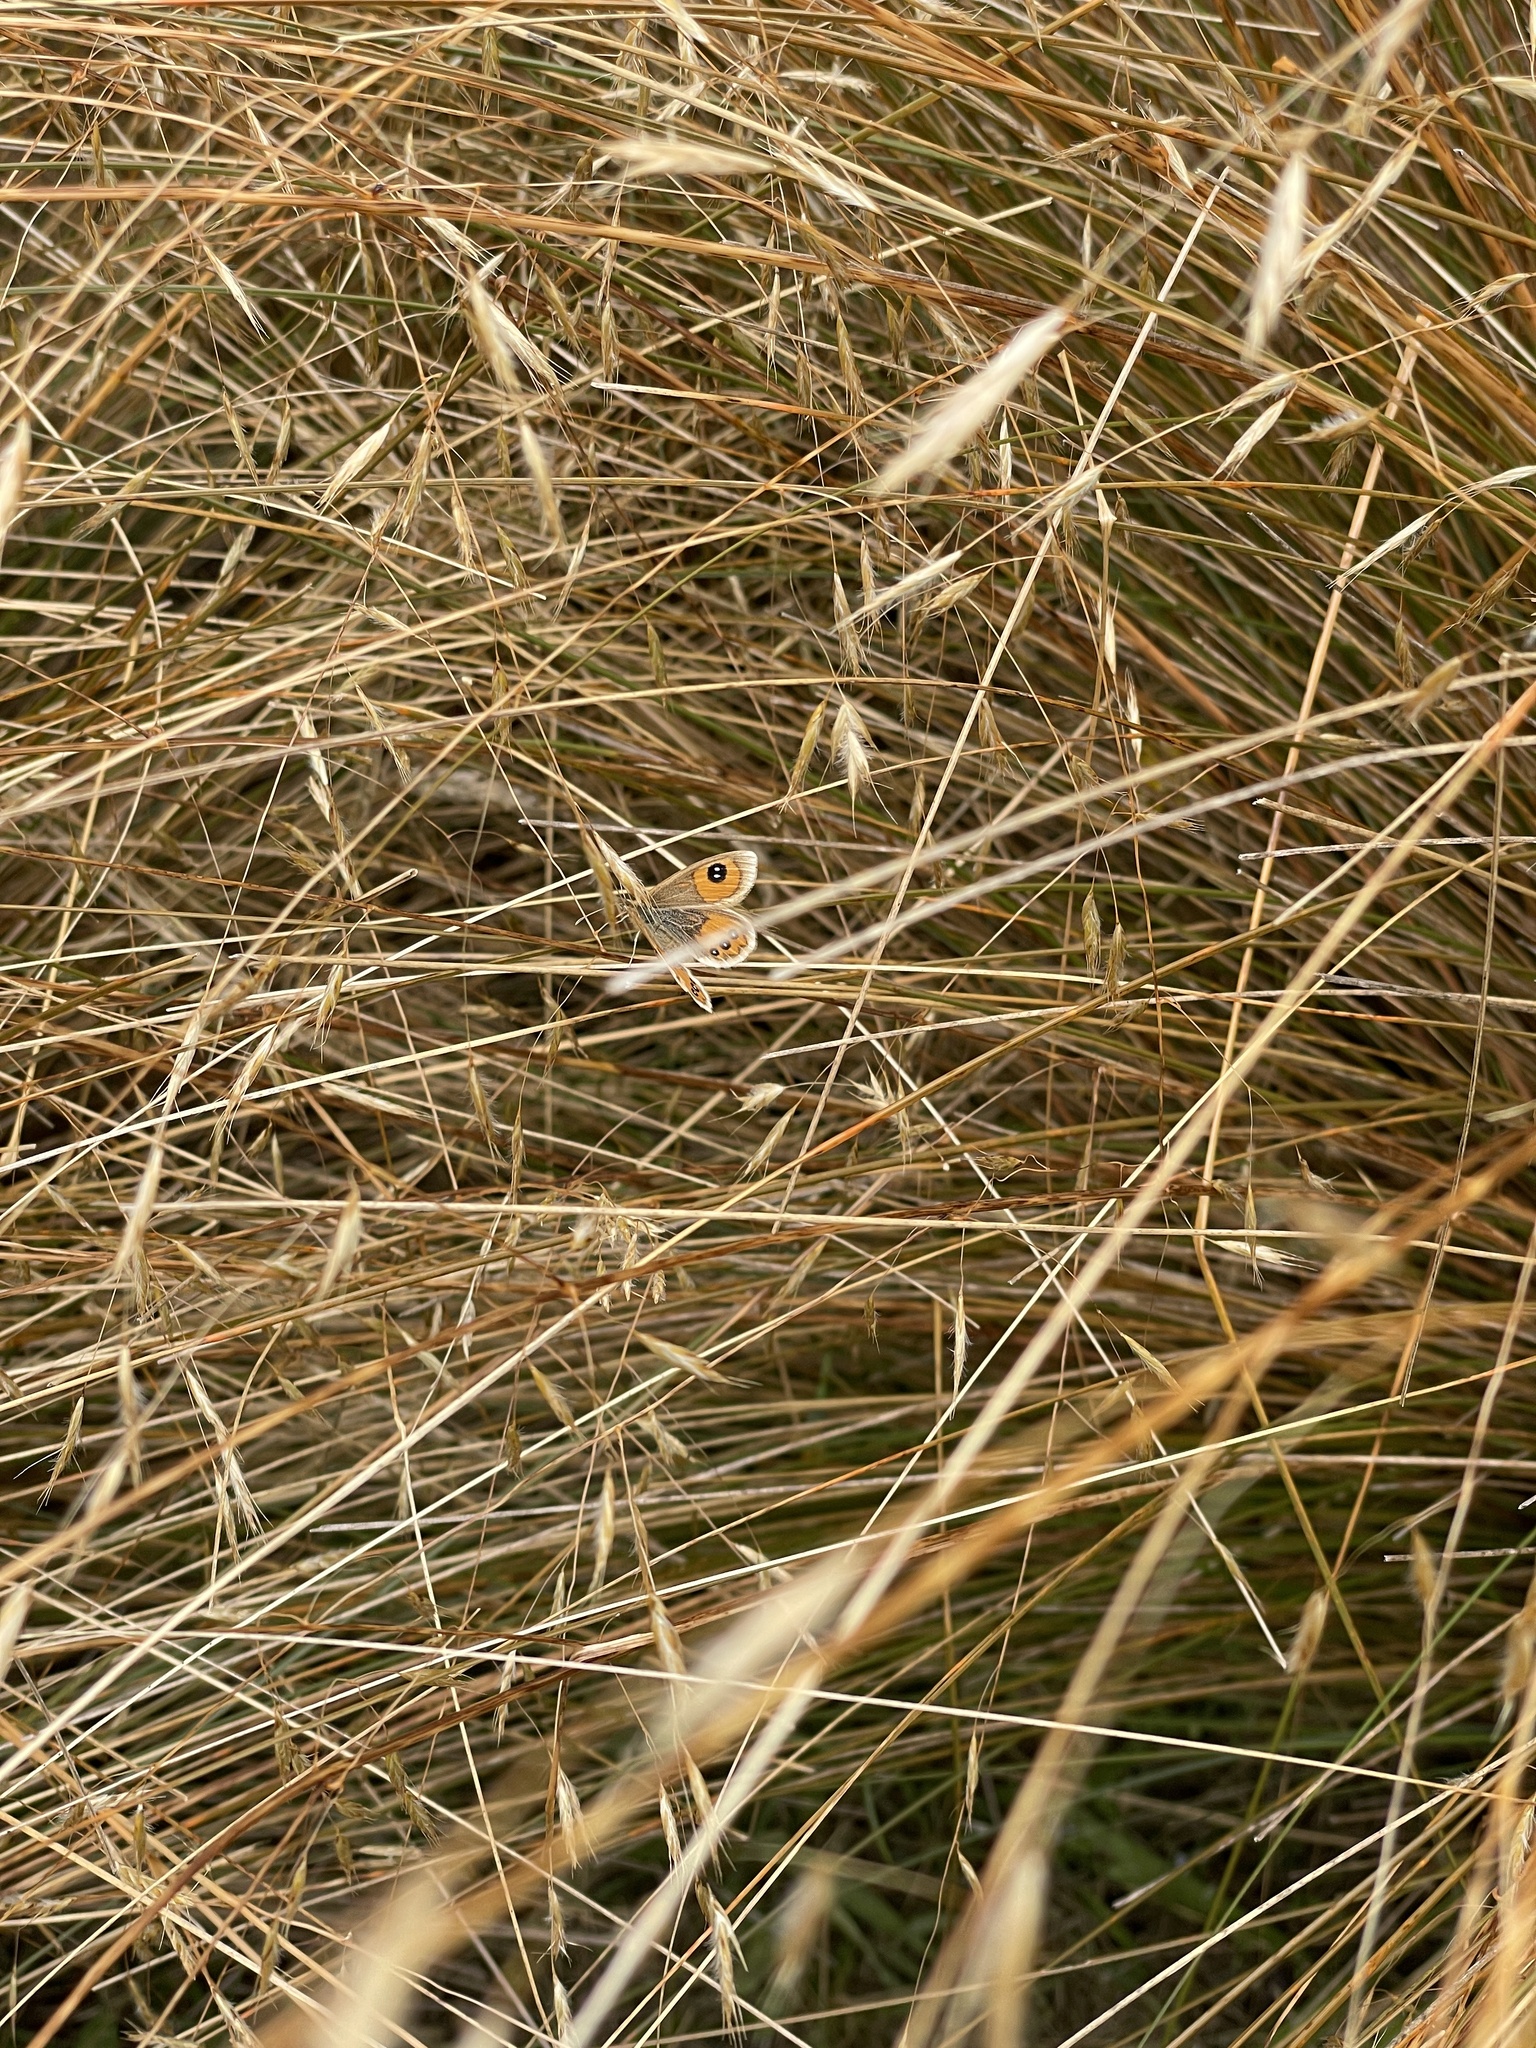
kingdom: Animalia
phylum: Arthropoda
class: Insecta
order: Lepidoptera
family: Nymphalidae
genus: Argyrophenga
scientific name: Argyrophenga antipodum
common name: Common tussock butterfly
